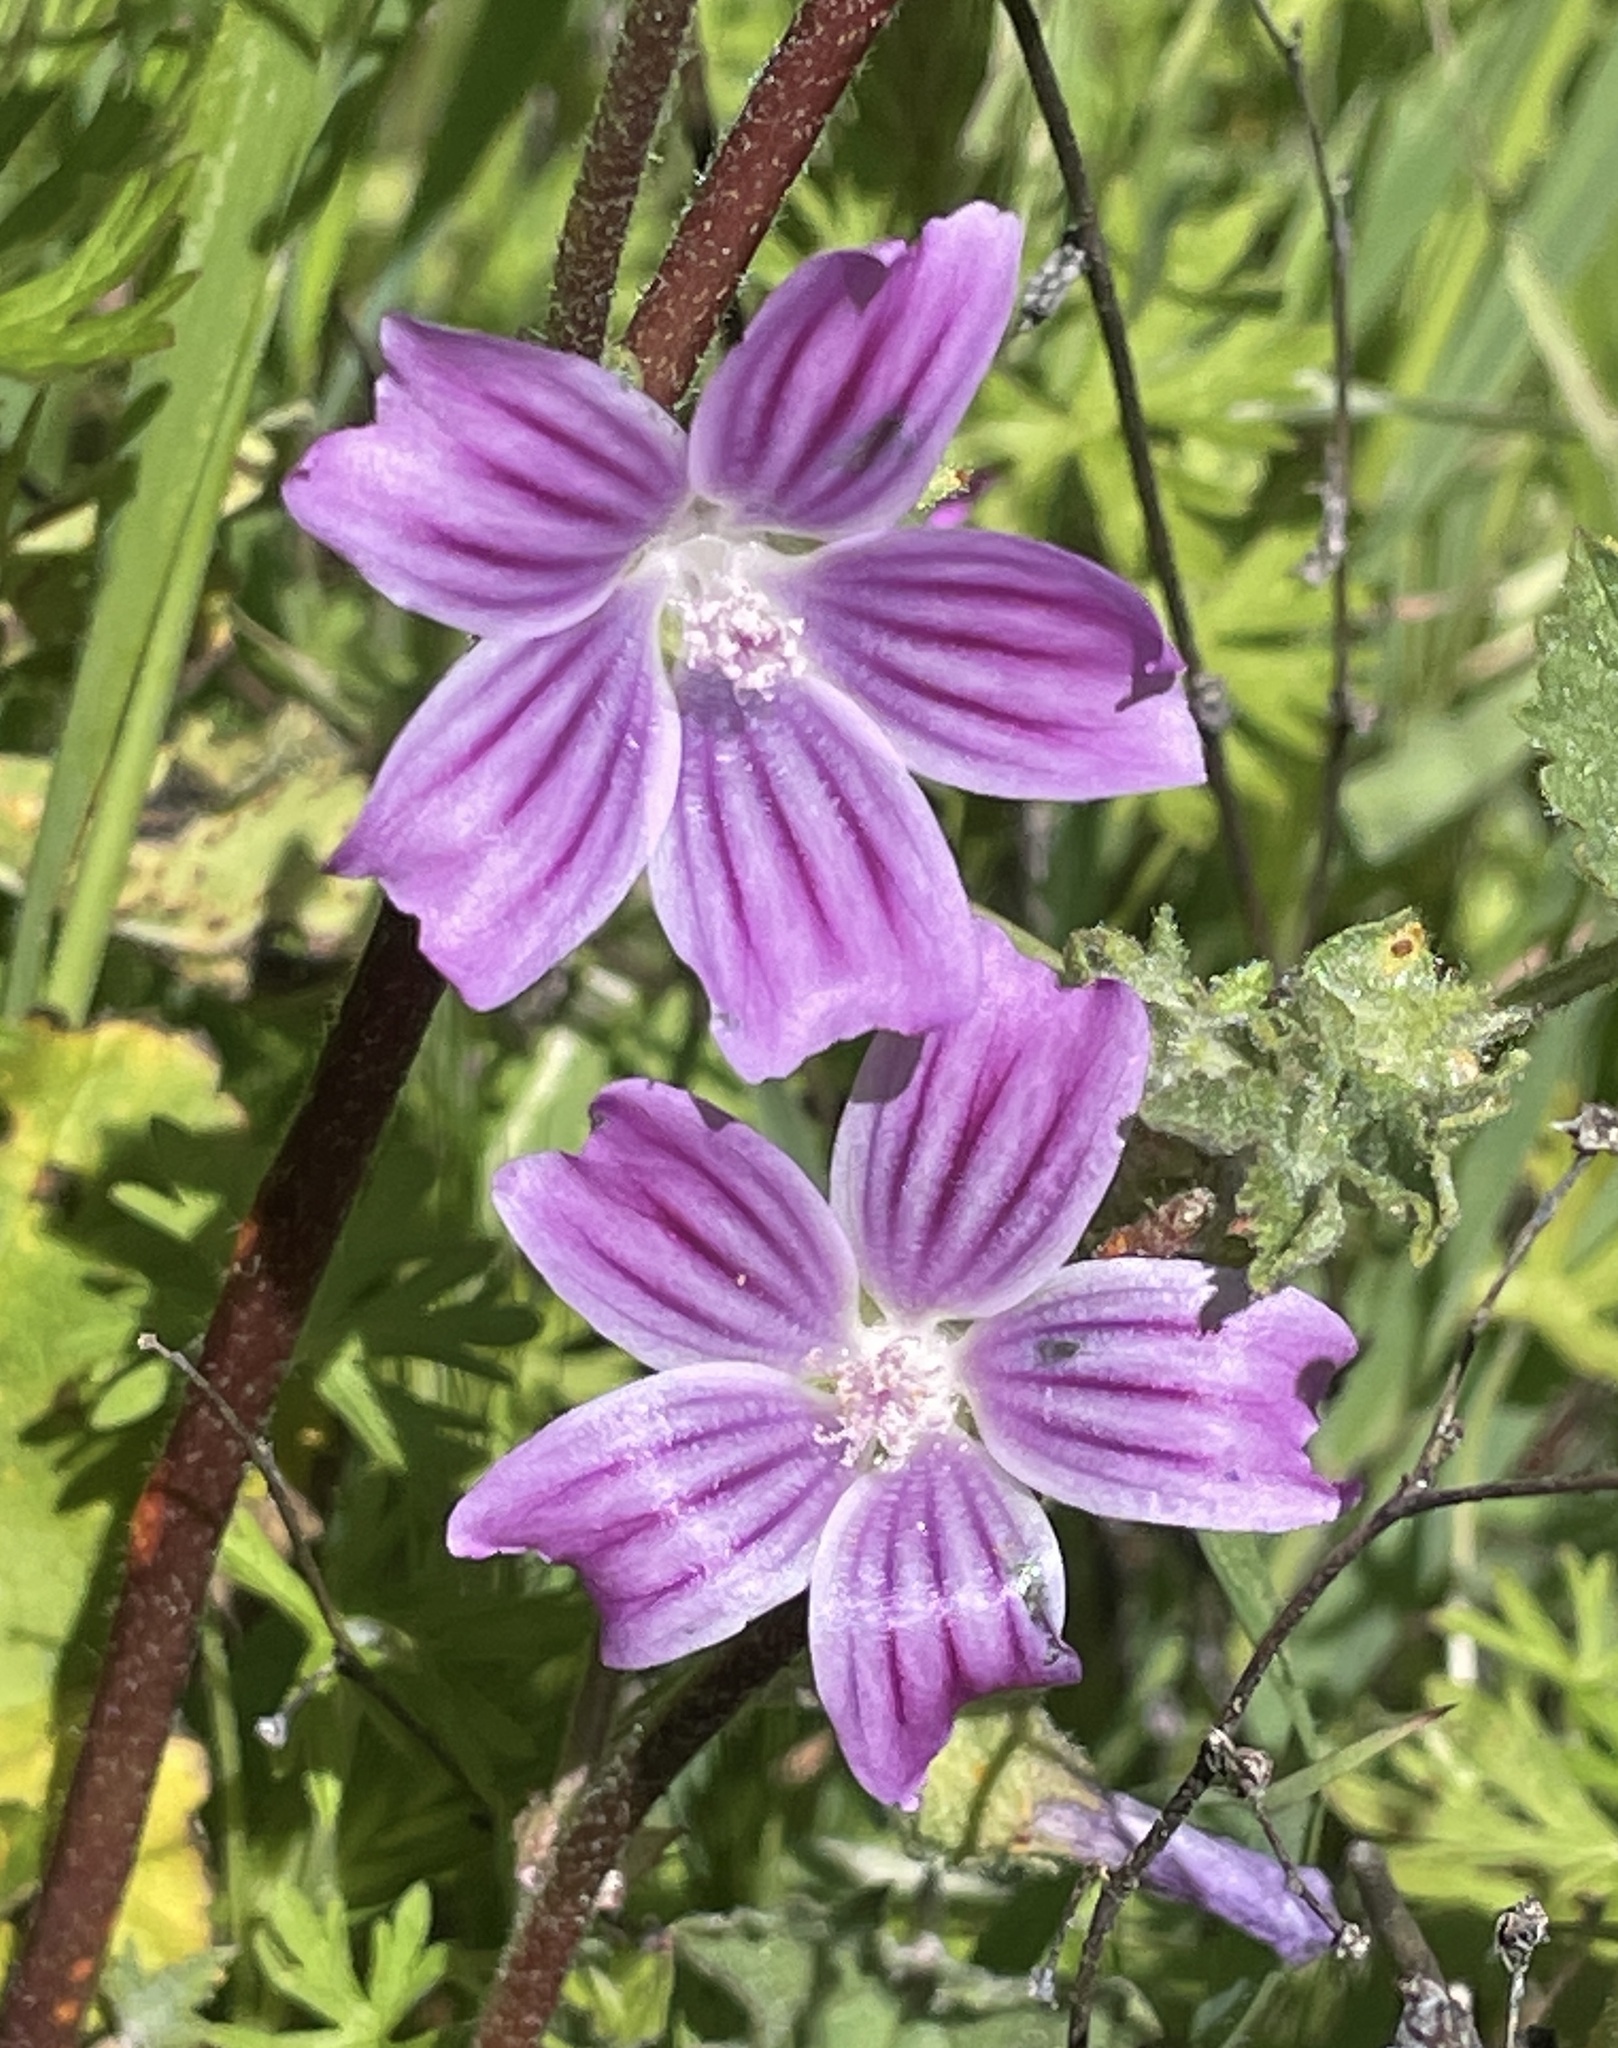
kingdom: Plantae
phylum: Tracheophyta
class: Magnoliopsida
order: Malvales
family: Malvaceae
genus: Malva
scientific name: Malva multiflora
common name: Cheeseweed
